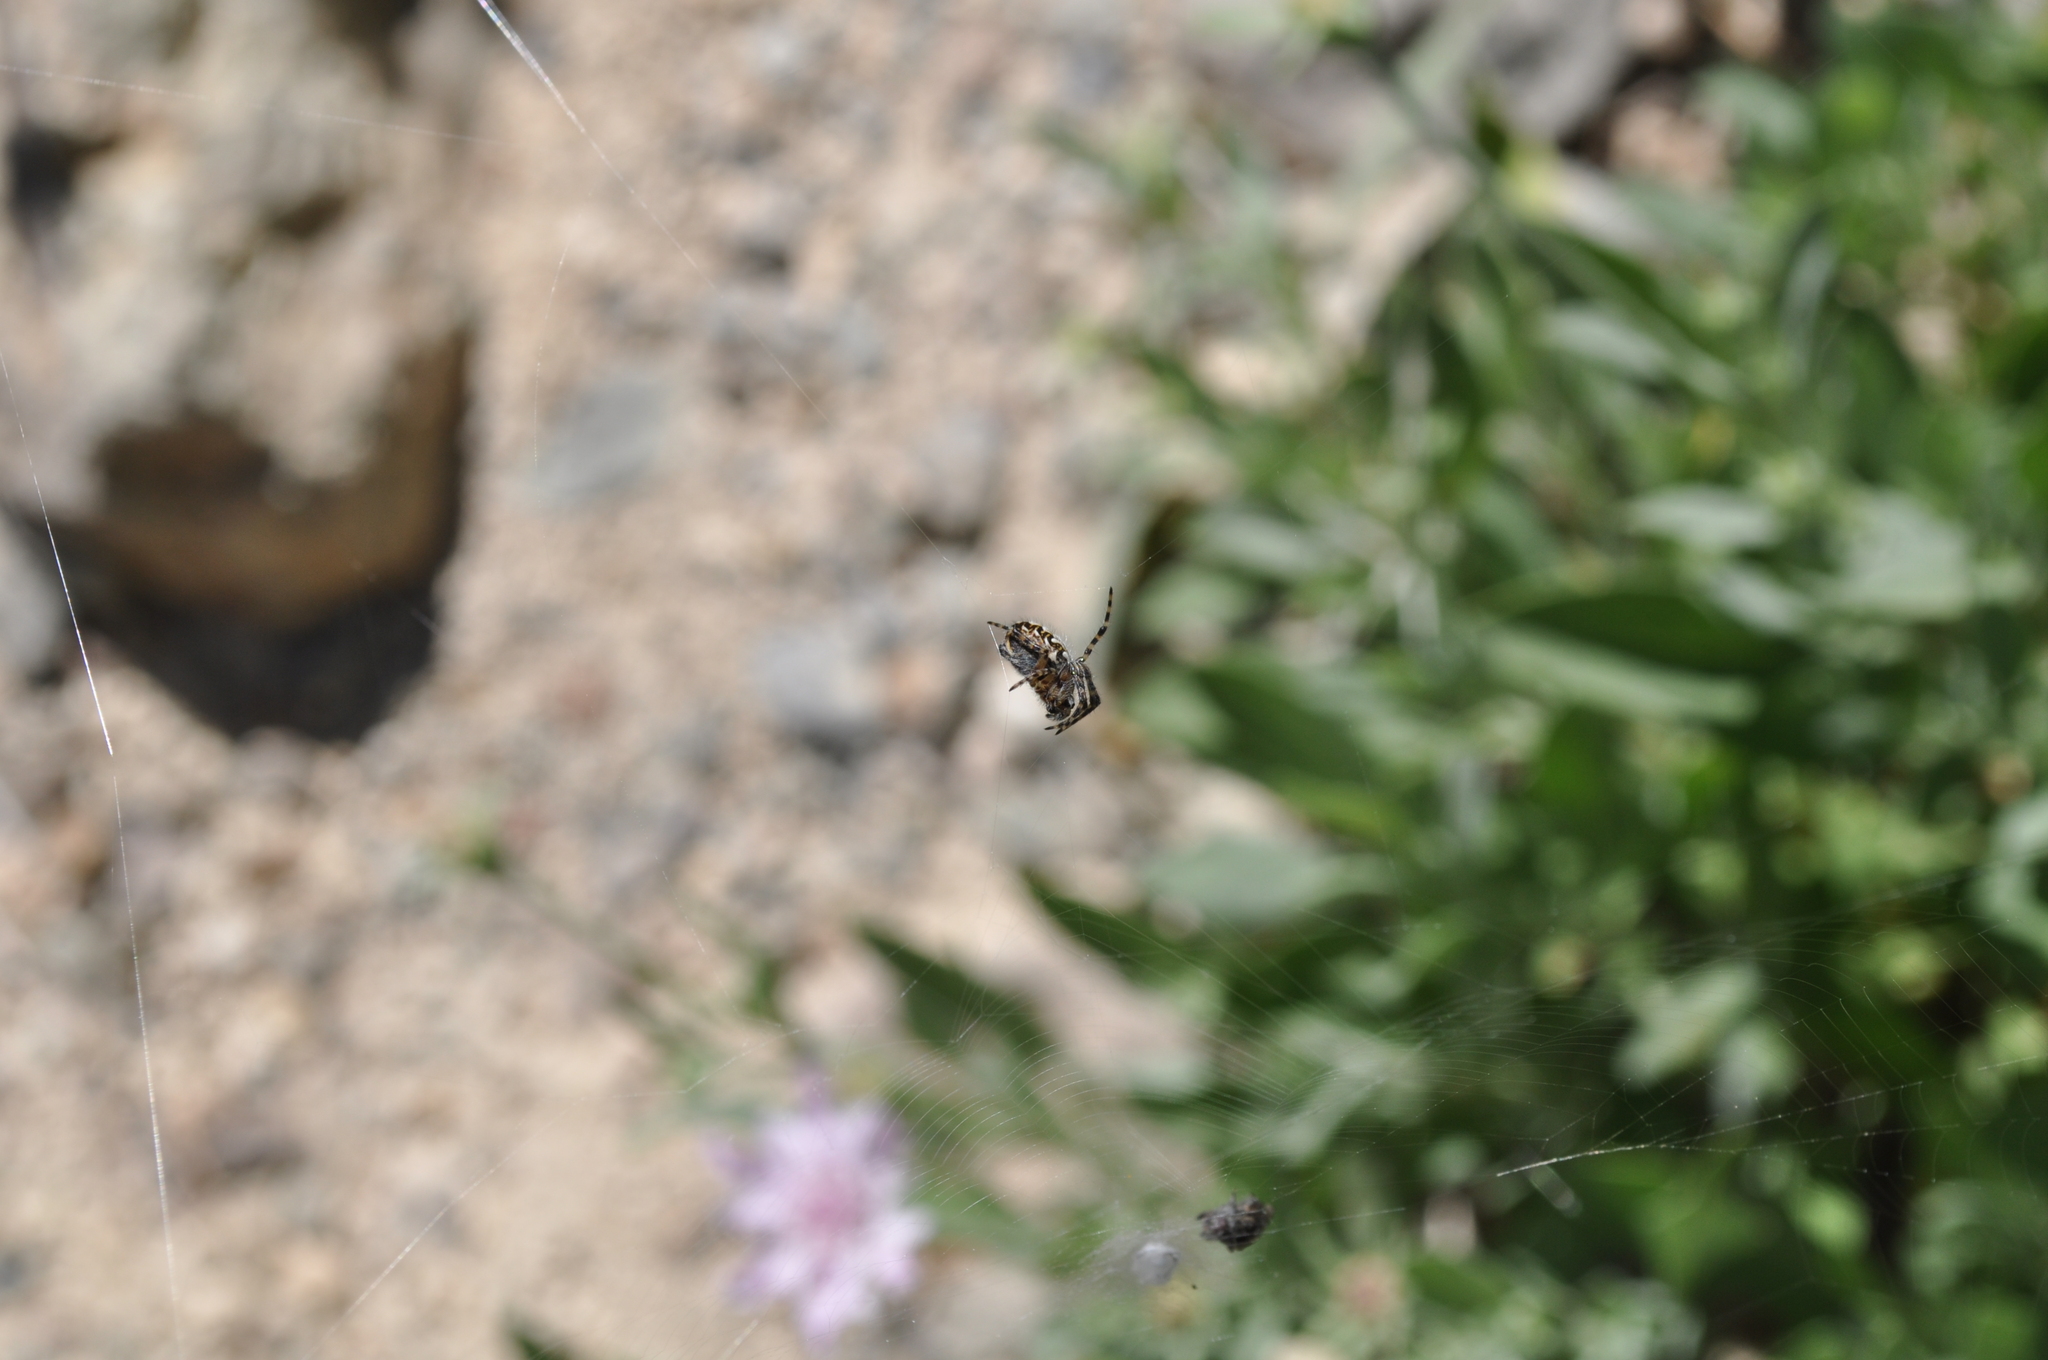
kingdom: Animalia
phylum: Arthropoda
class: Arachnida
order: Araneae
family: Araneidae
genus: Araneus
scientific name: Araneus annulipes
